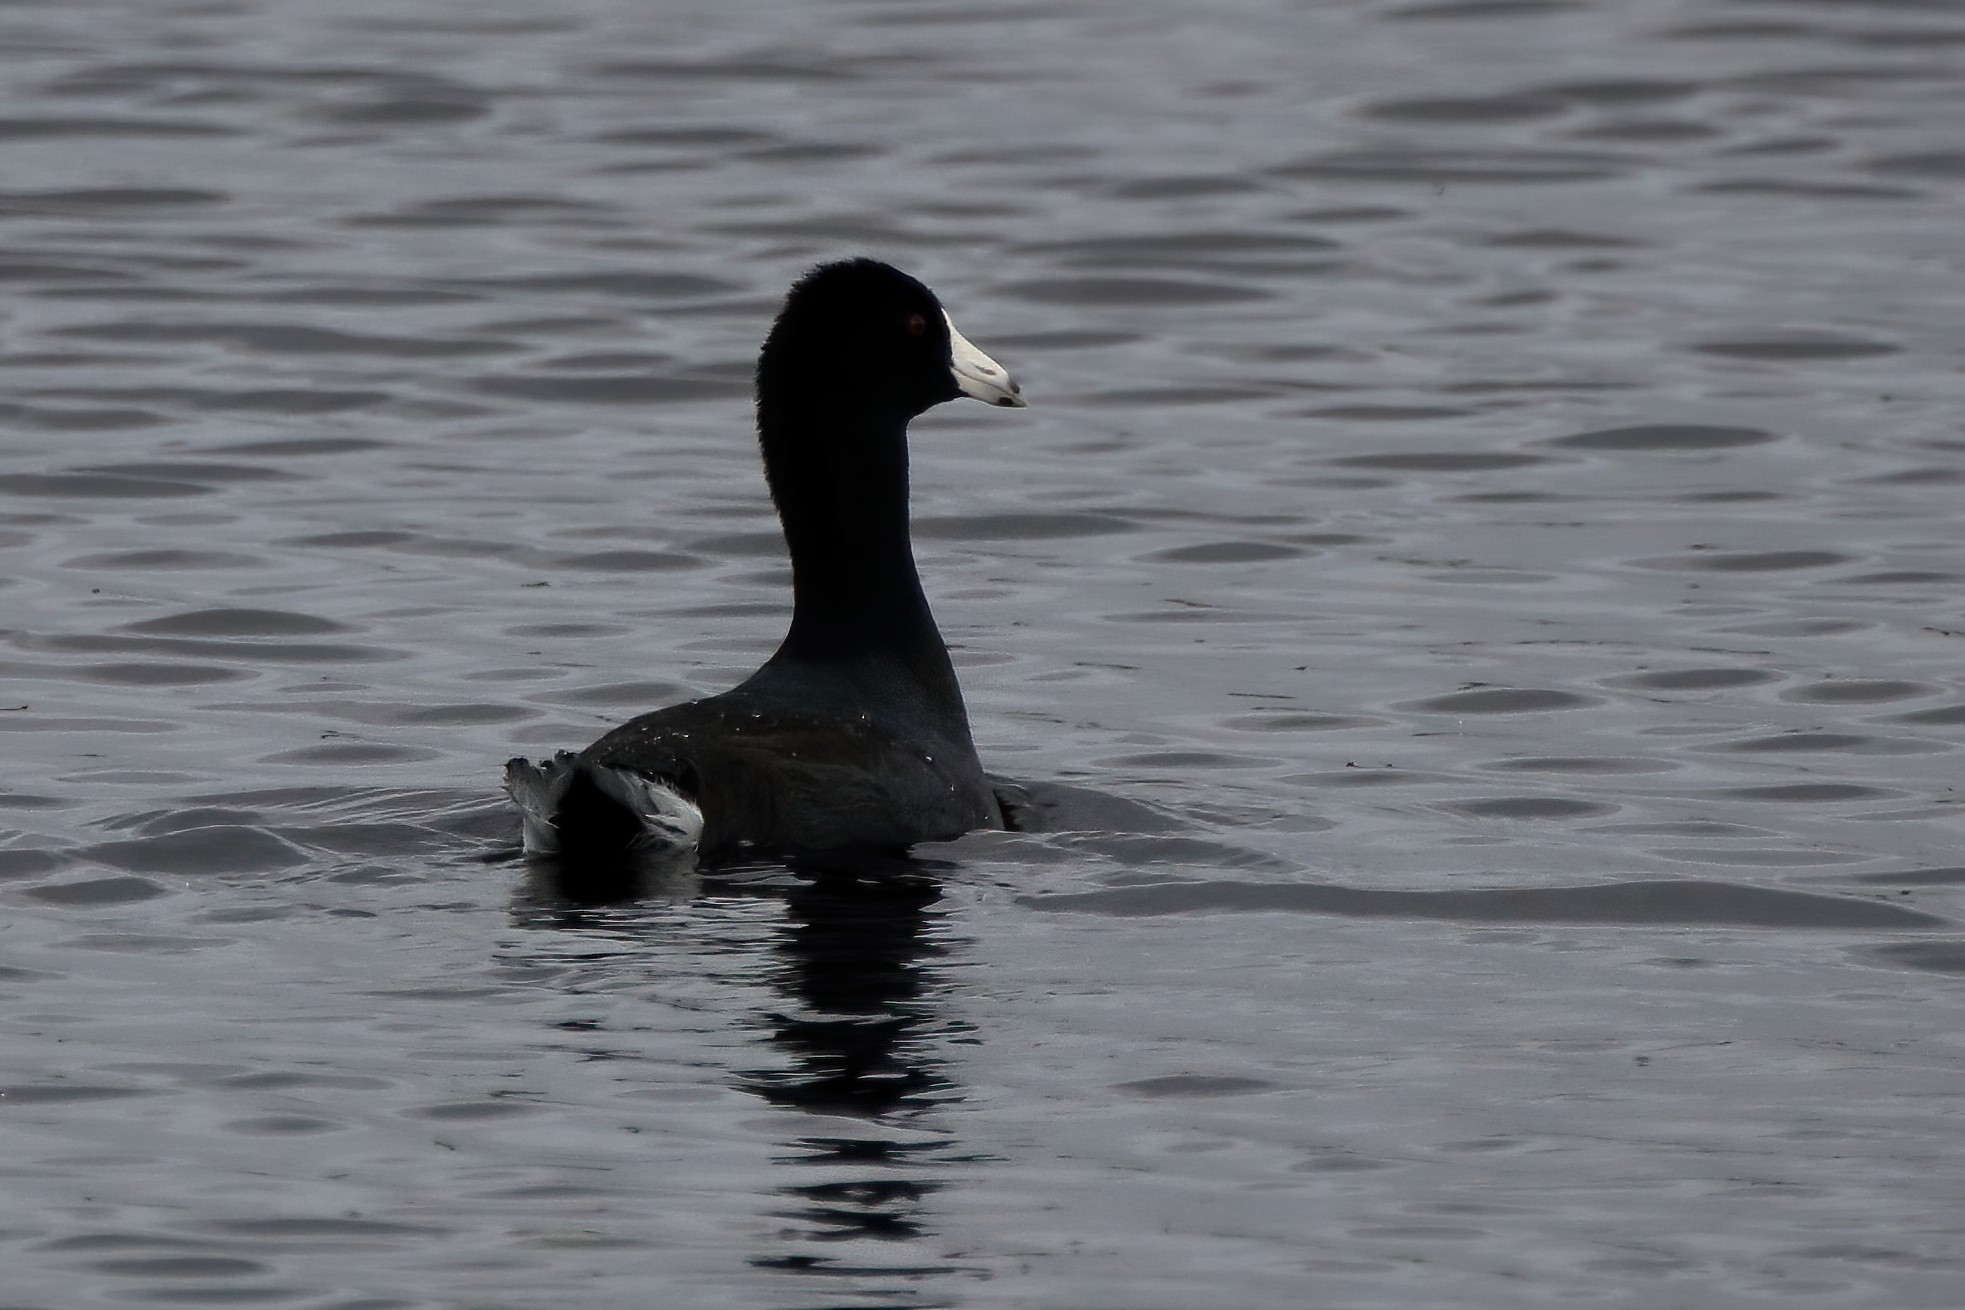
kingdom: Animalia
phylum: Chordata
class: Aves
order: Gruiformes
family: Rallidae
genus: Fulica
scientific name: Fulica americana
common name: American coot
